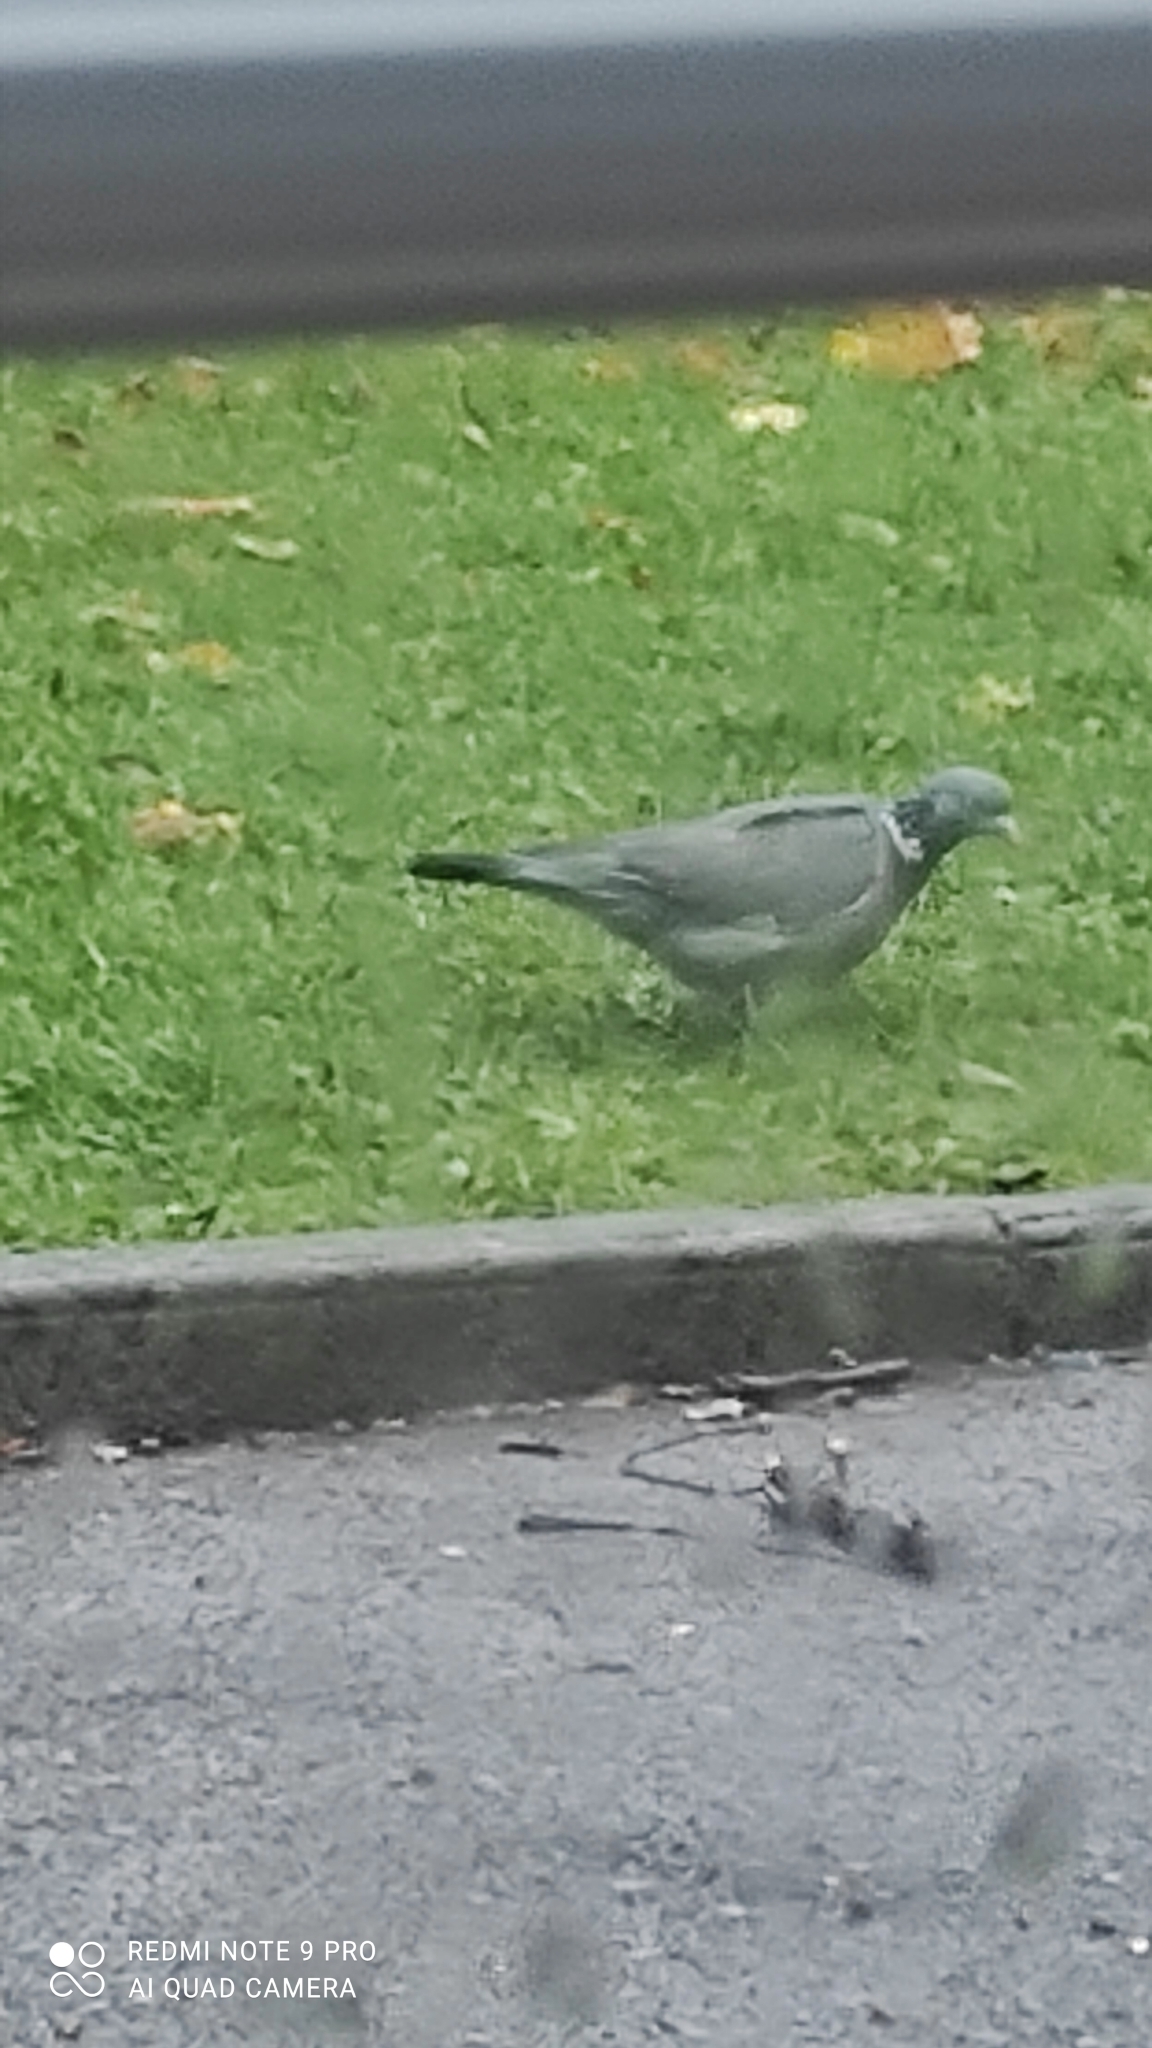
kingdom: Animalia
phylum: Chordata
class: Aves
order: Columbiformes
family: Columbidae
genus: Columba
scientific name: Columba palumbus
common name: Common wood pigeon
